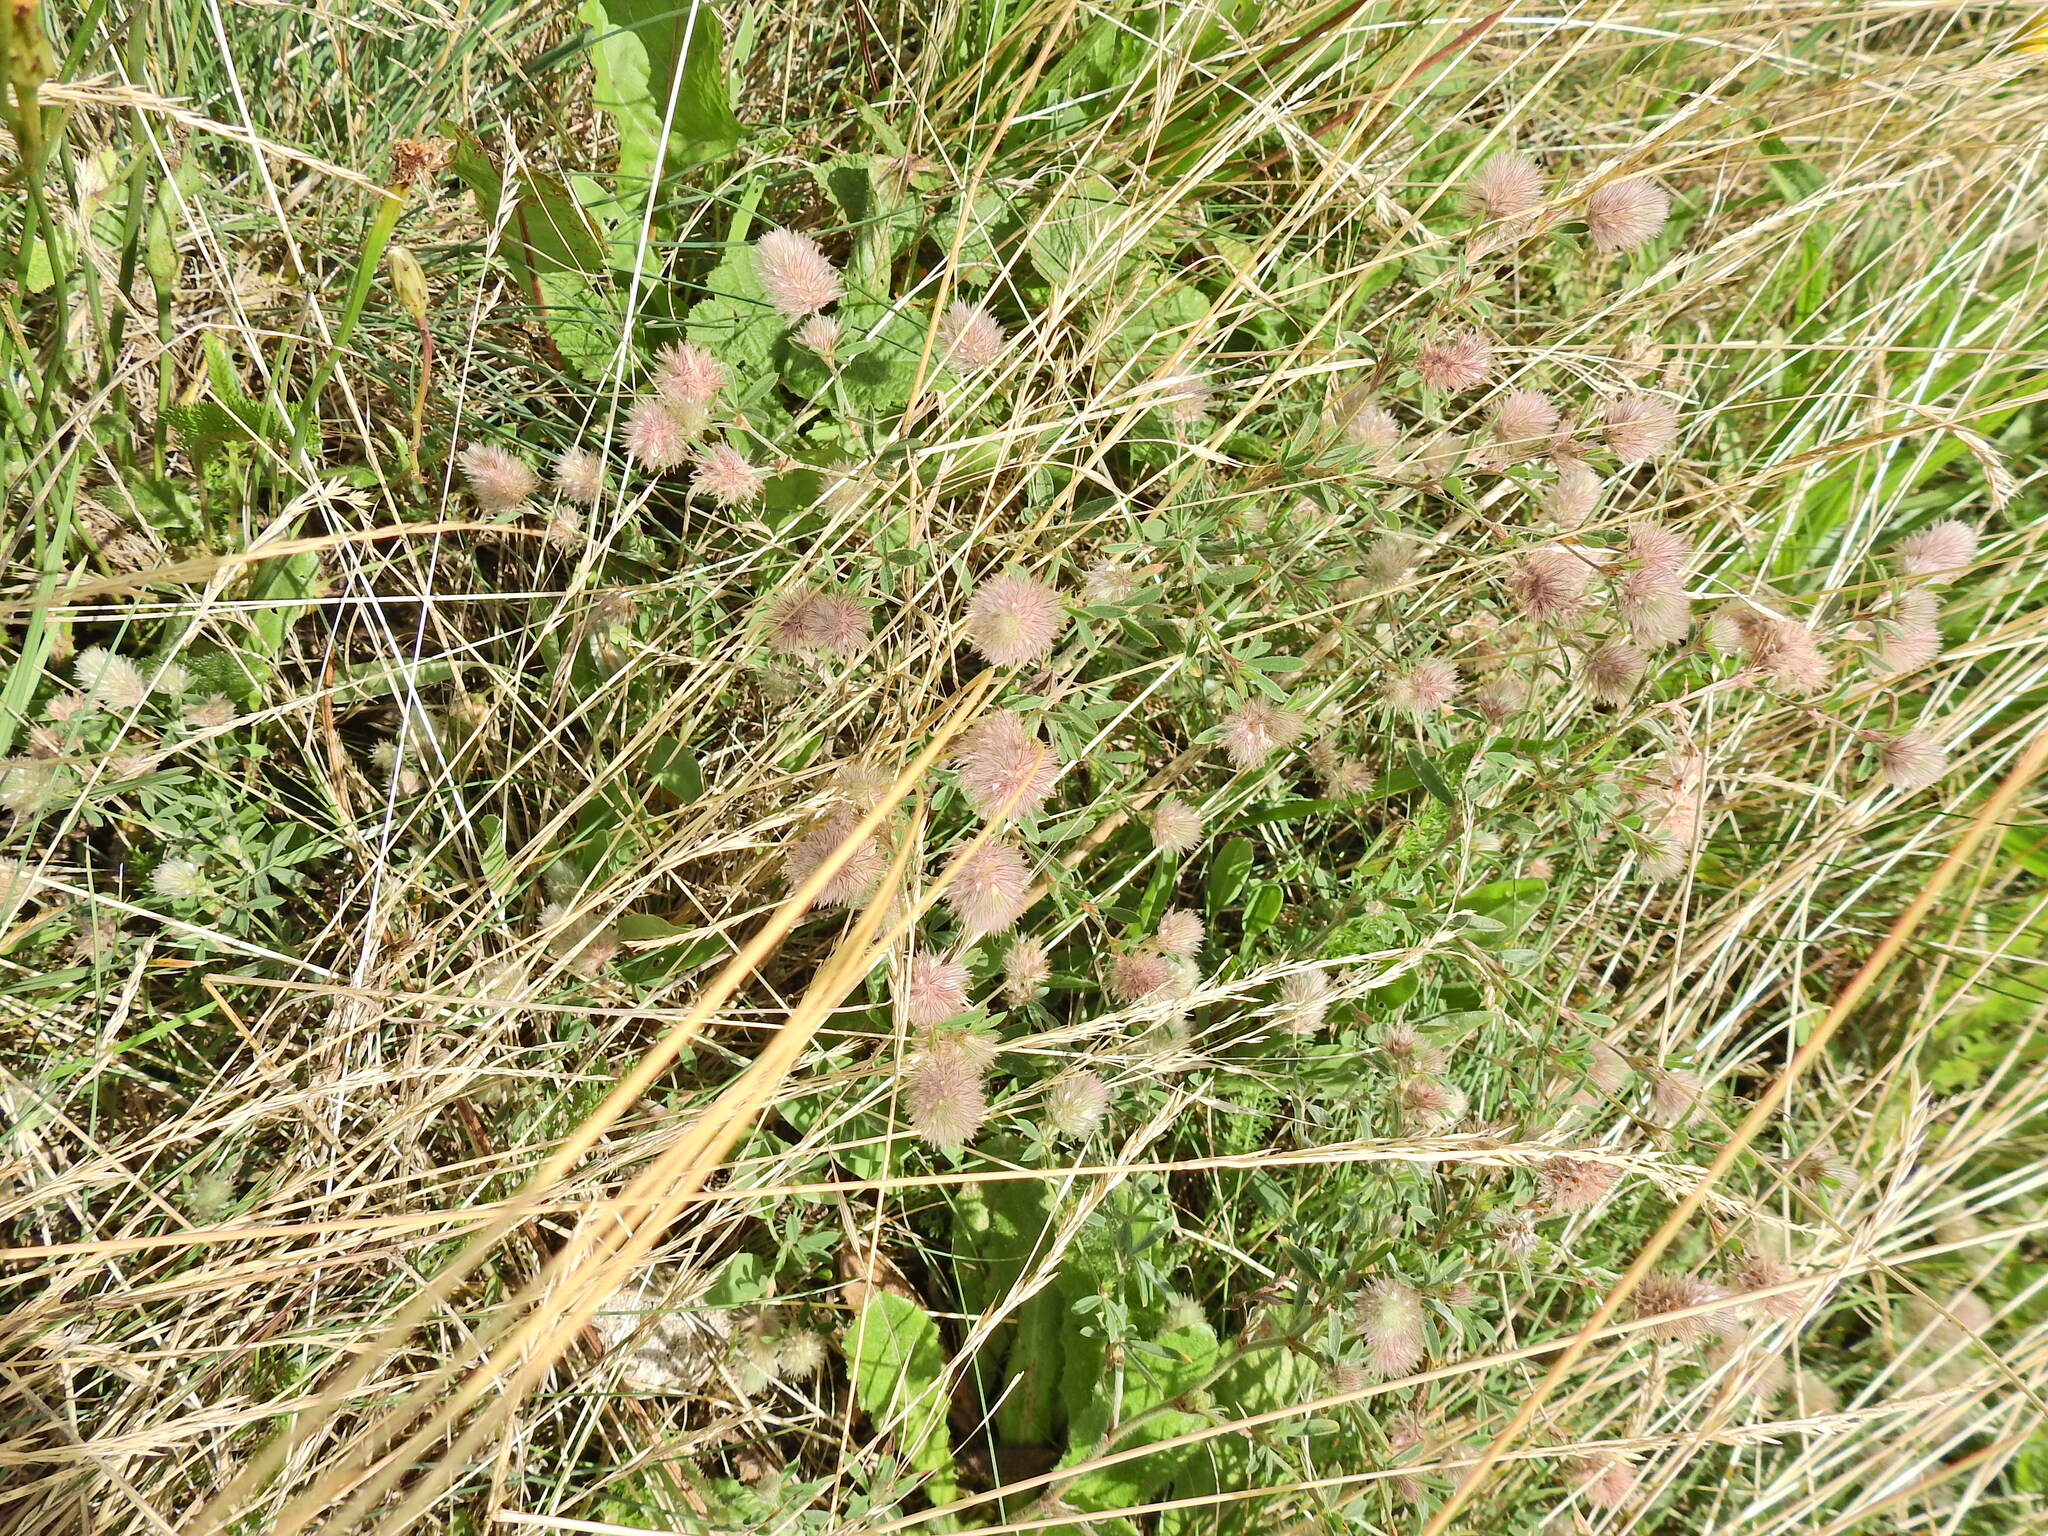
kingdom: Plantae
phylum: Tracheophyta
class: Magnoliopsida
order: Fabales
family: Fabaceae
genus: Trifolium
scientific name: Trifolium arvense
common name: Hare's-foot clover
